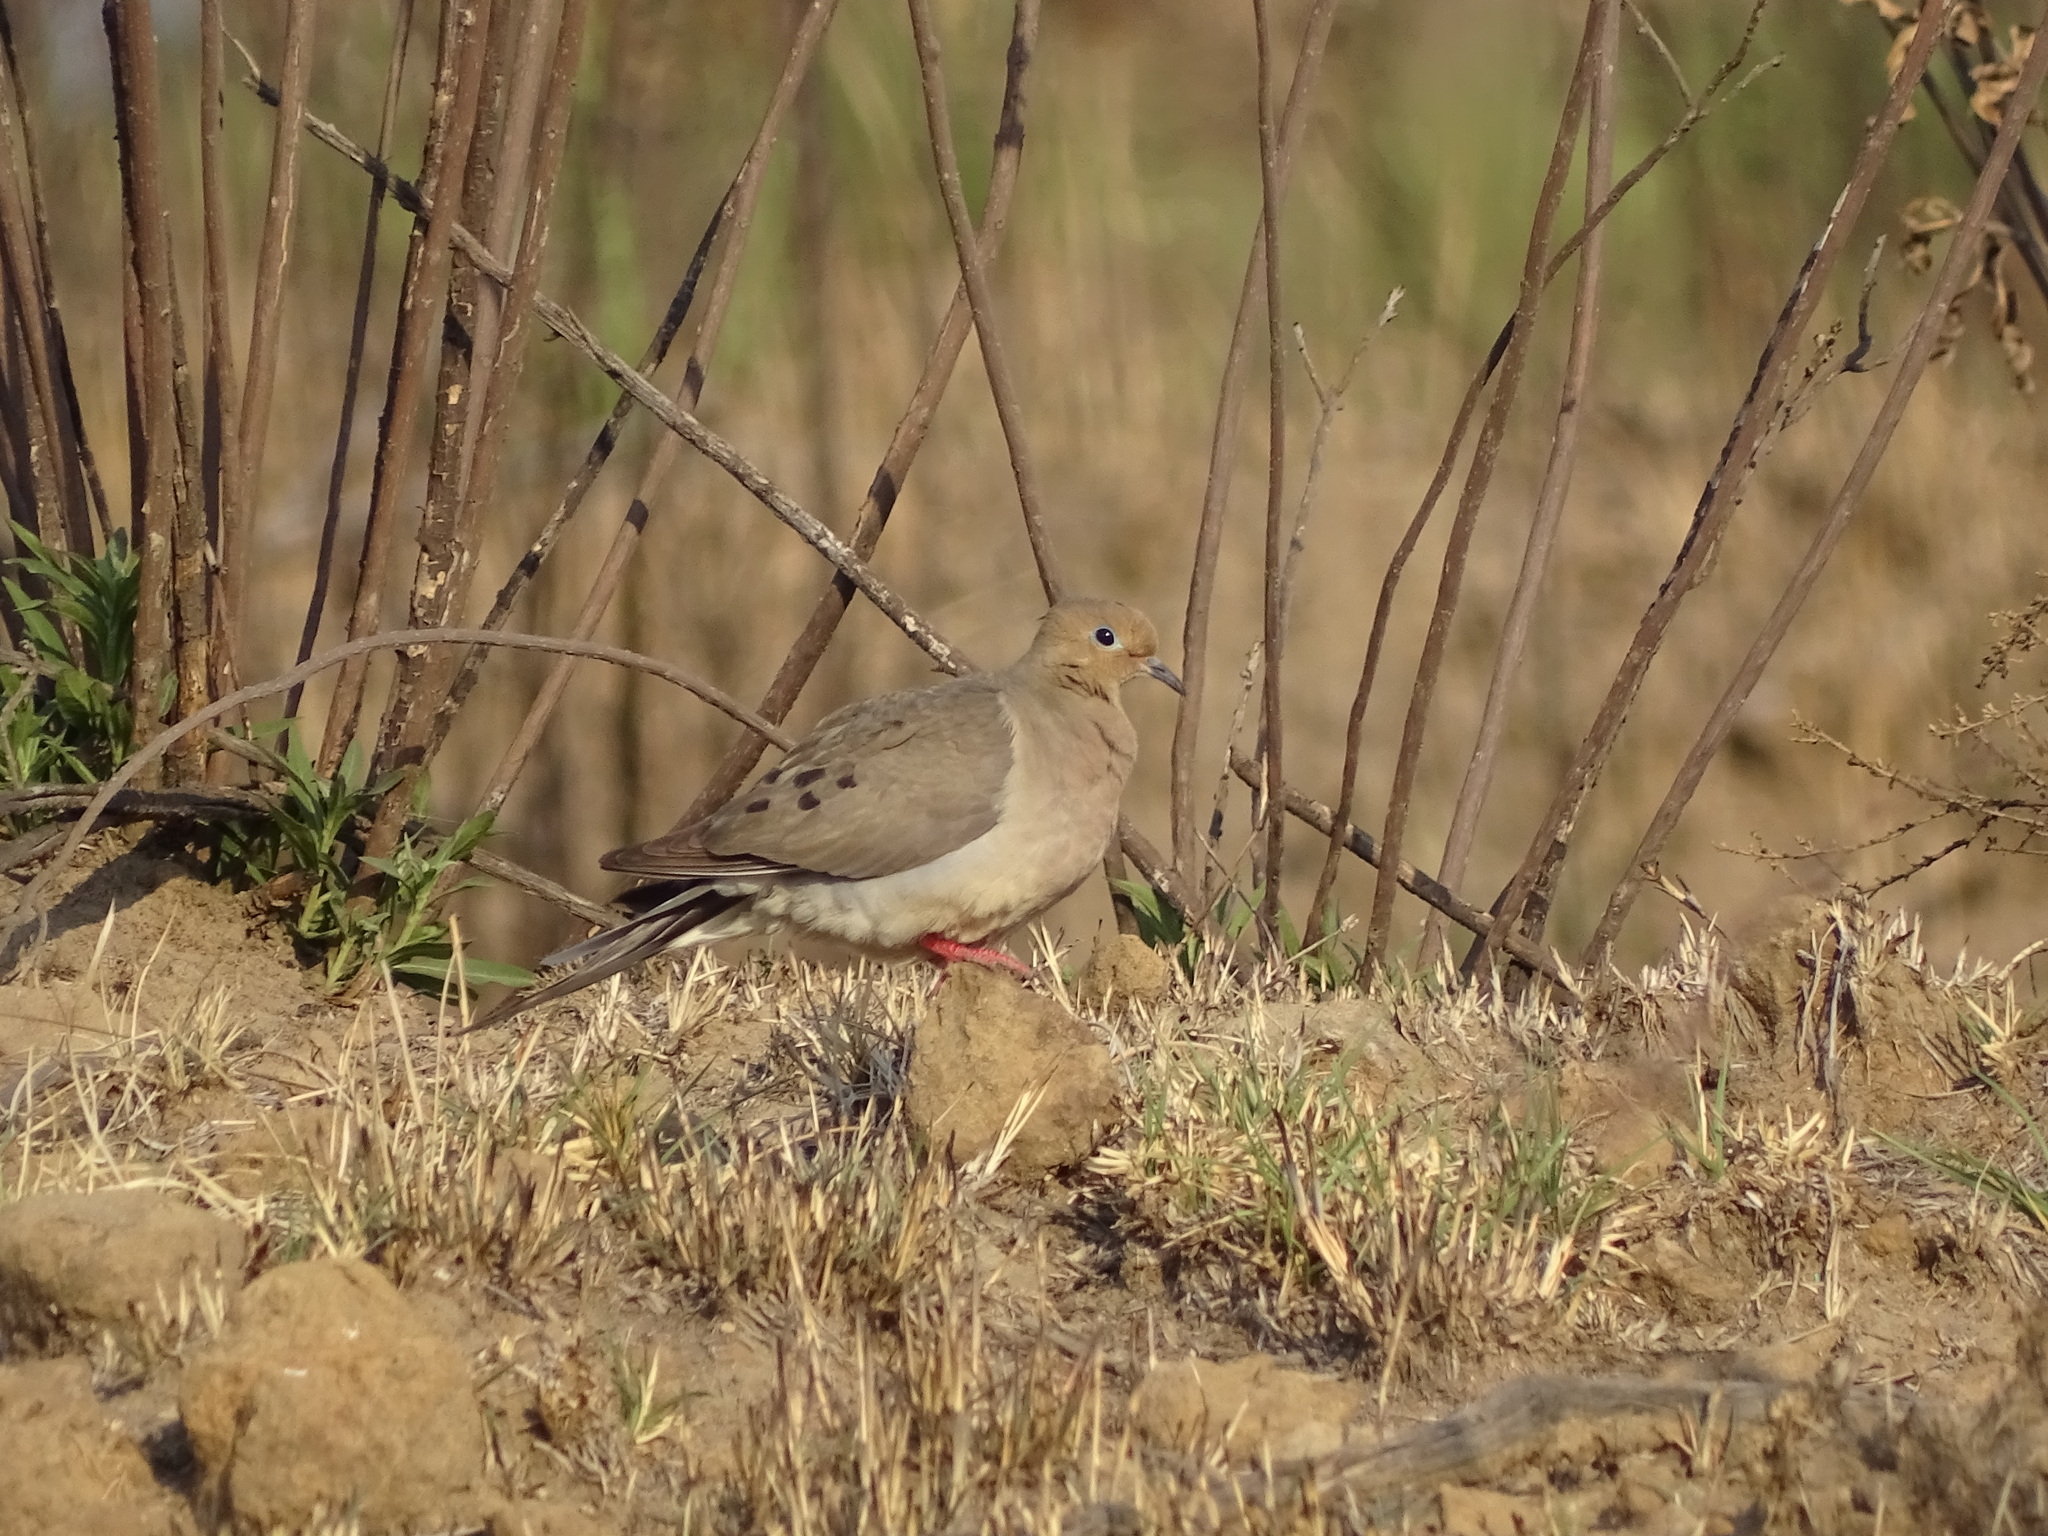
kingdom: Animalia
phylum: Chordata
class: Aves
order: Columbiformes
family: Columbidae
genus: Zenaida
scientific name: Zenaida macroura
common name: Mourning dove
